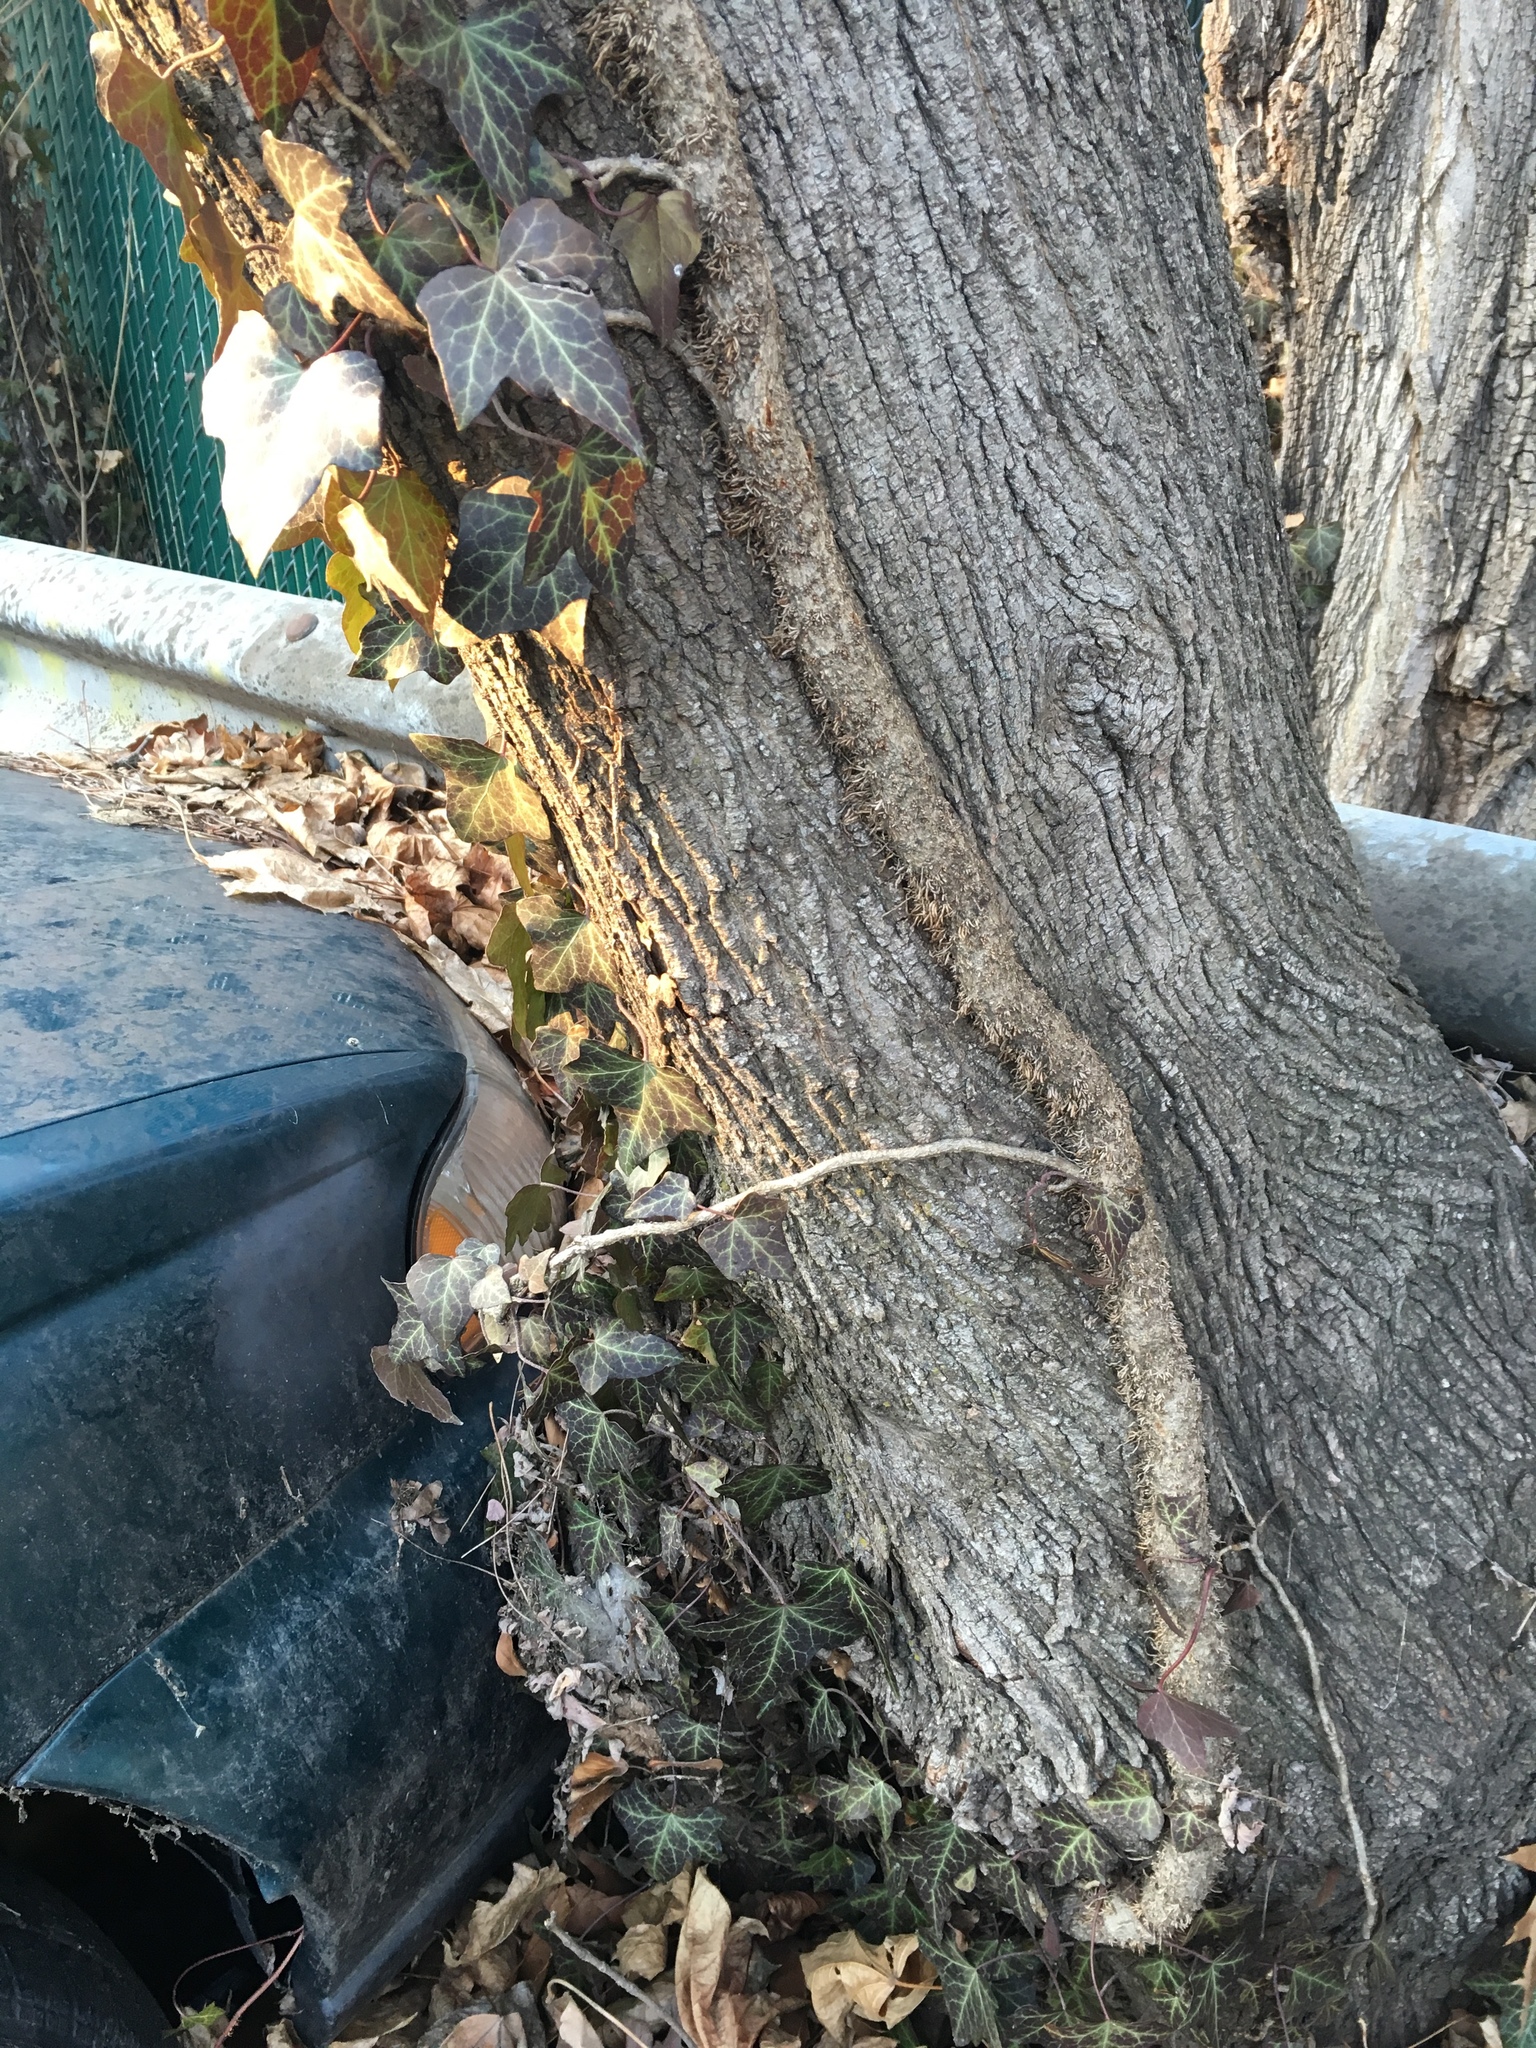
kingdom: Plantae
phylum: Tracheophyta
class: Magnoliopsida
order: Apiales
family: Araliaceae
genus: Hedera
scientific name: Hedera helix
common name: Ivy
